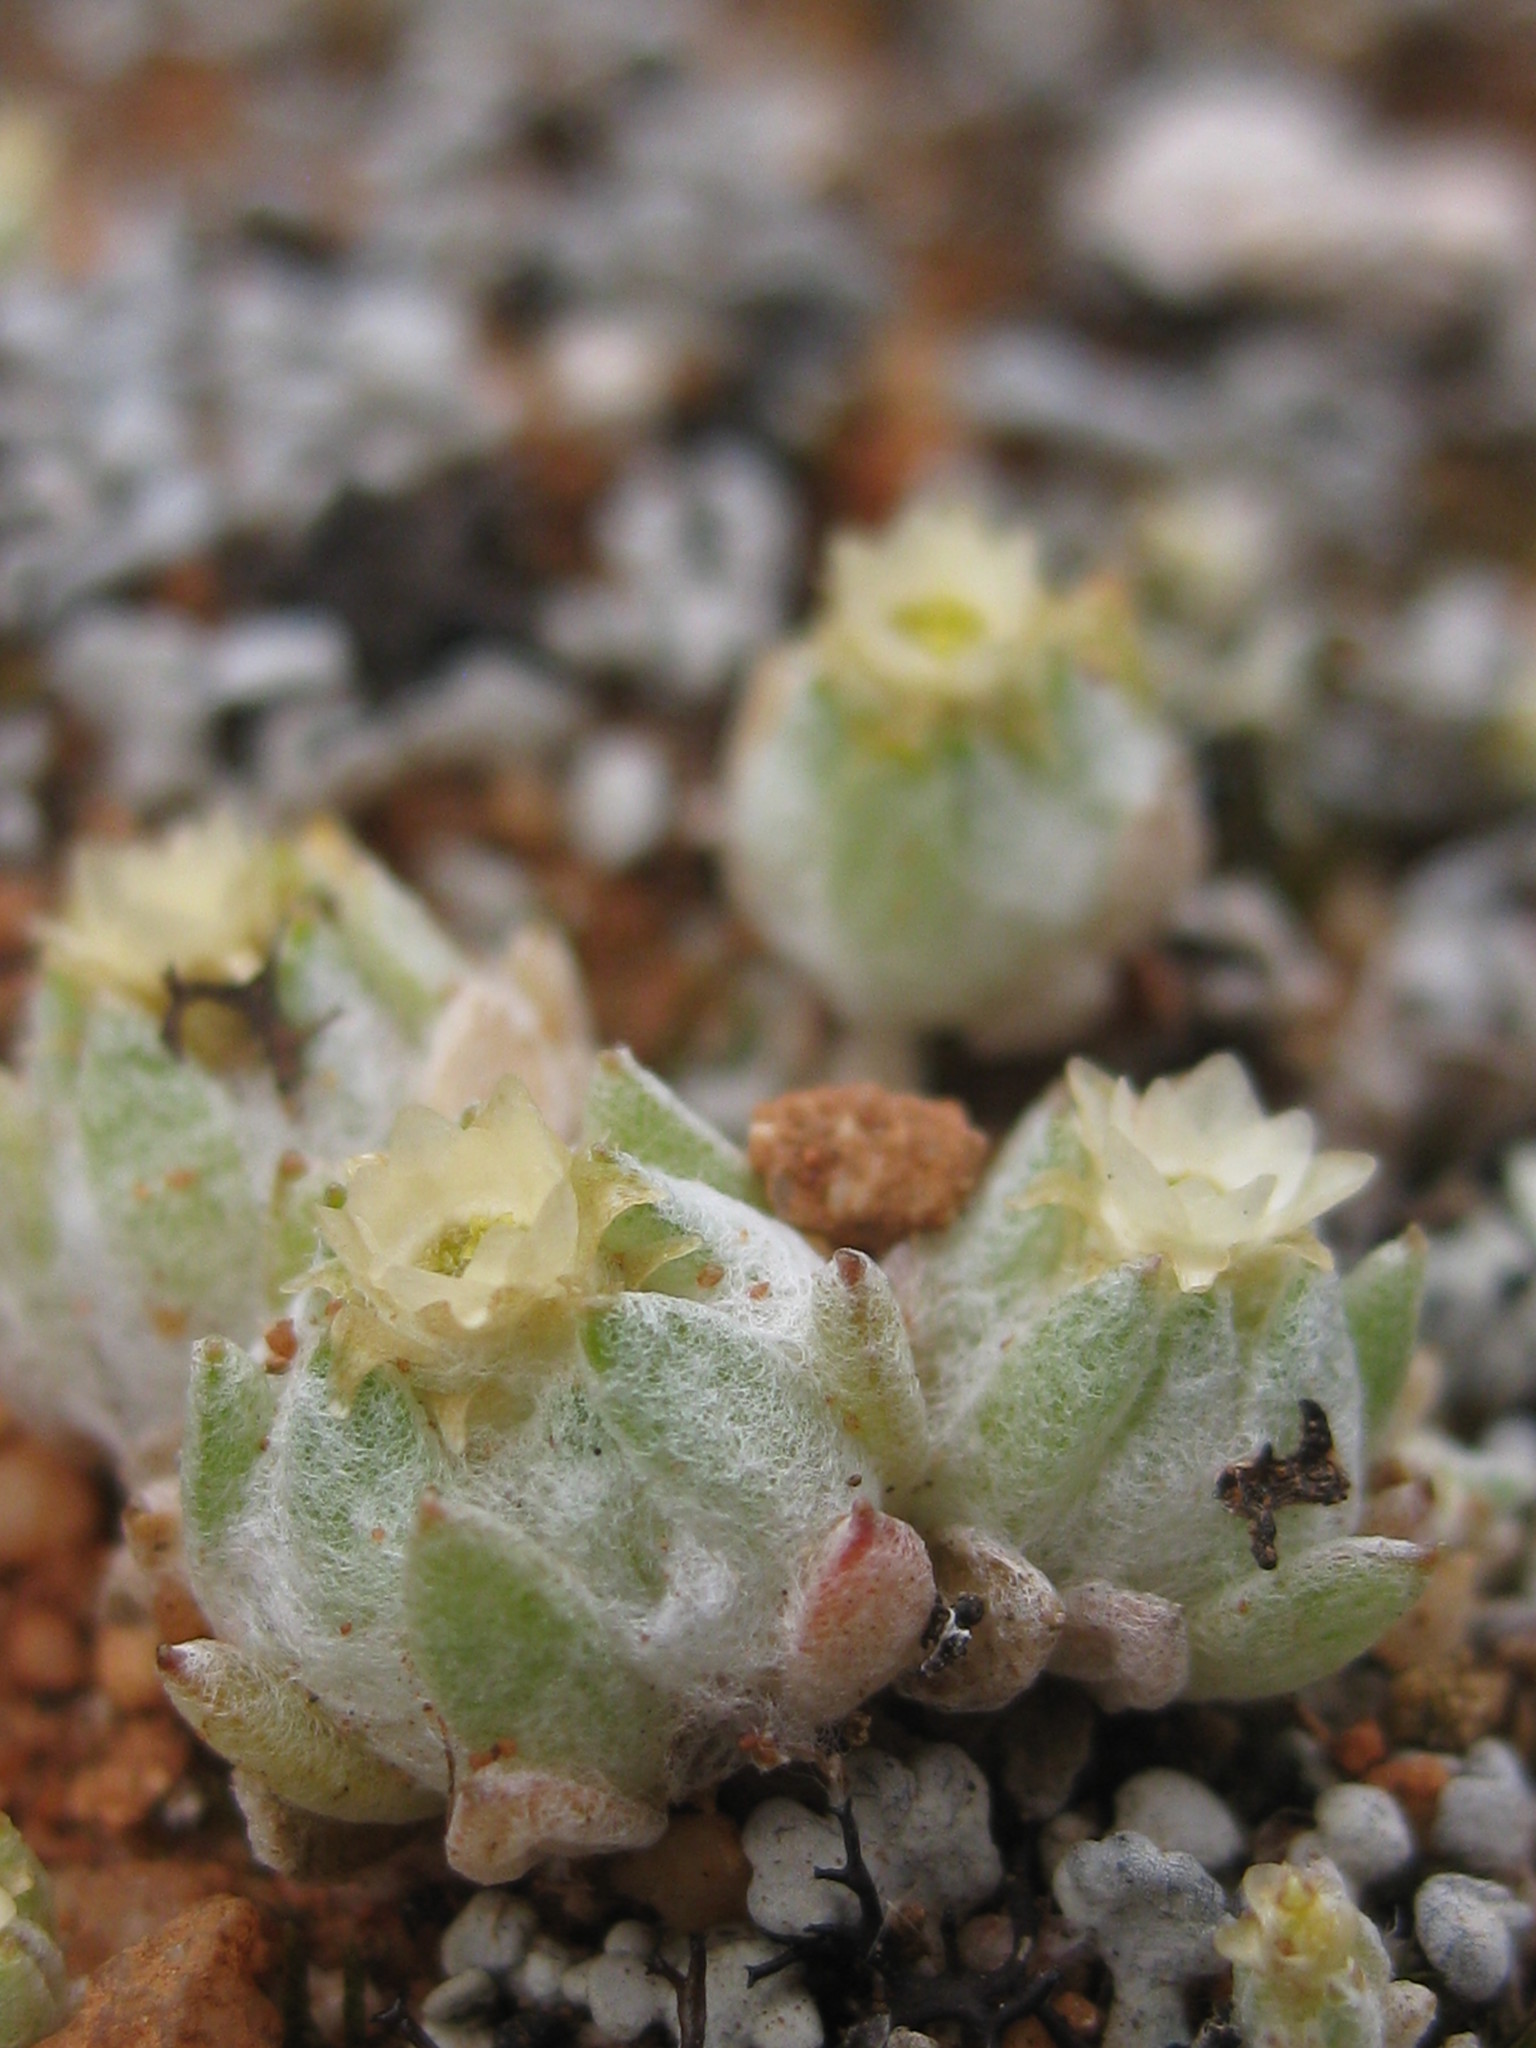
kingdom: Plantae
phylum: Tracheophyta
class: Magnoliopsida
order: Asterales
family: Asteraceae
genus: Actinobole
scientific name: Actinobole uliginosum
